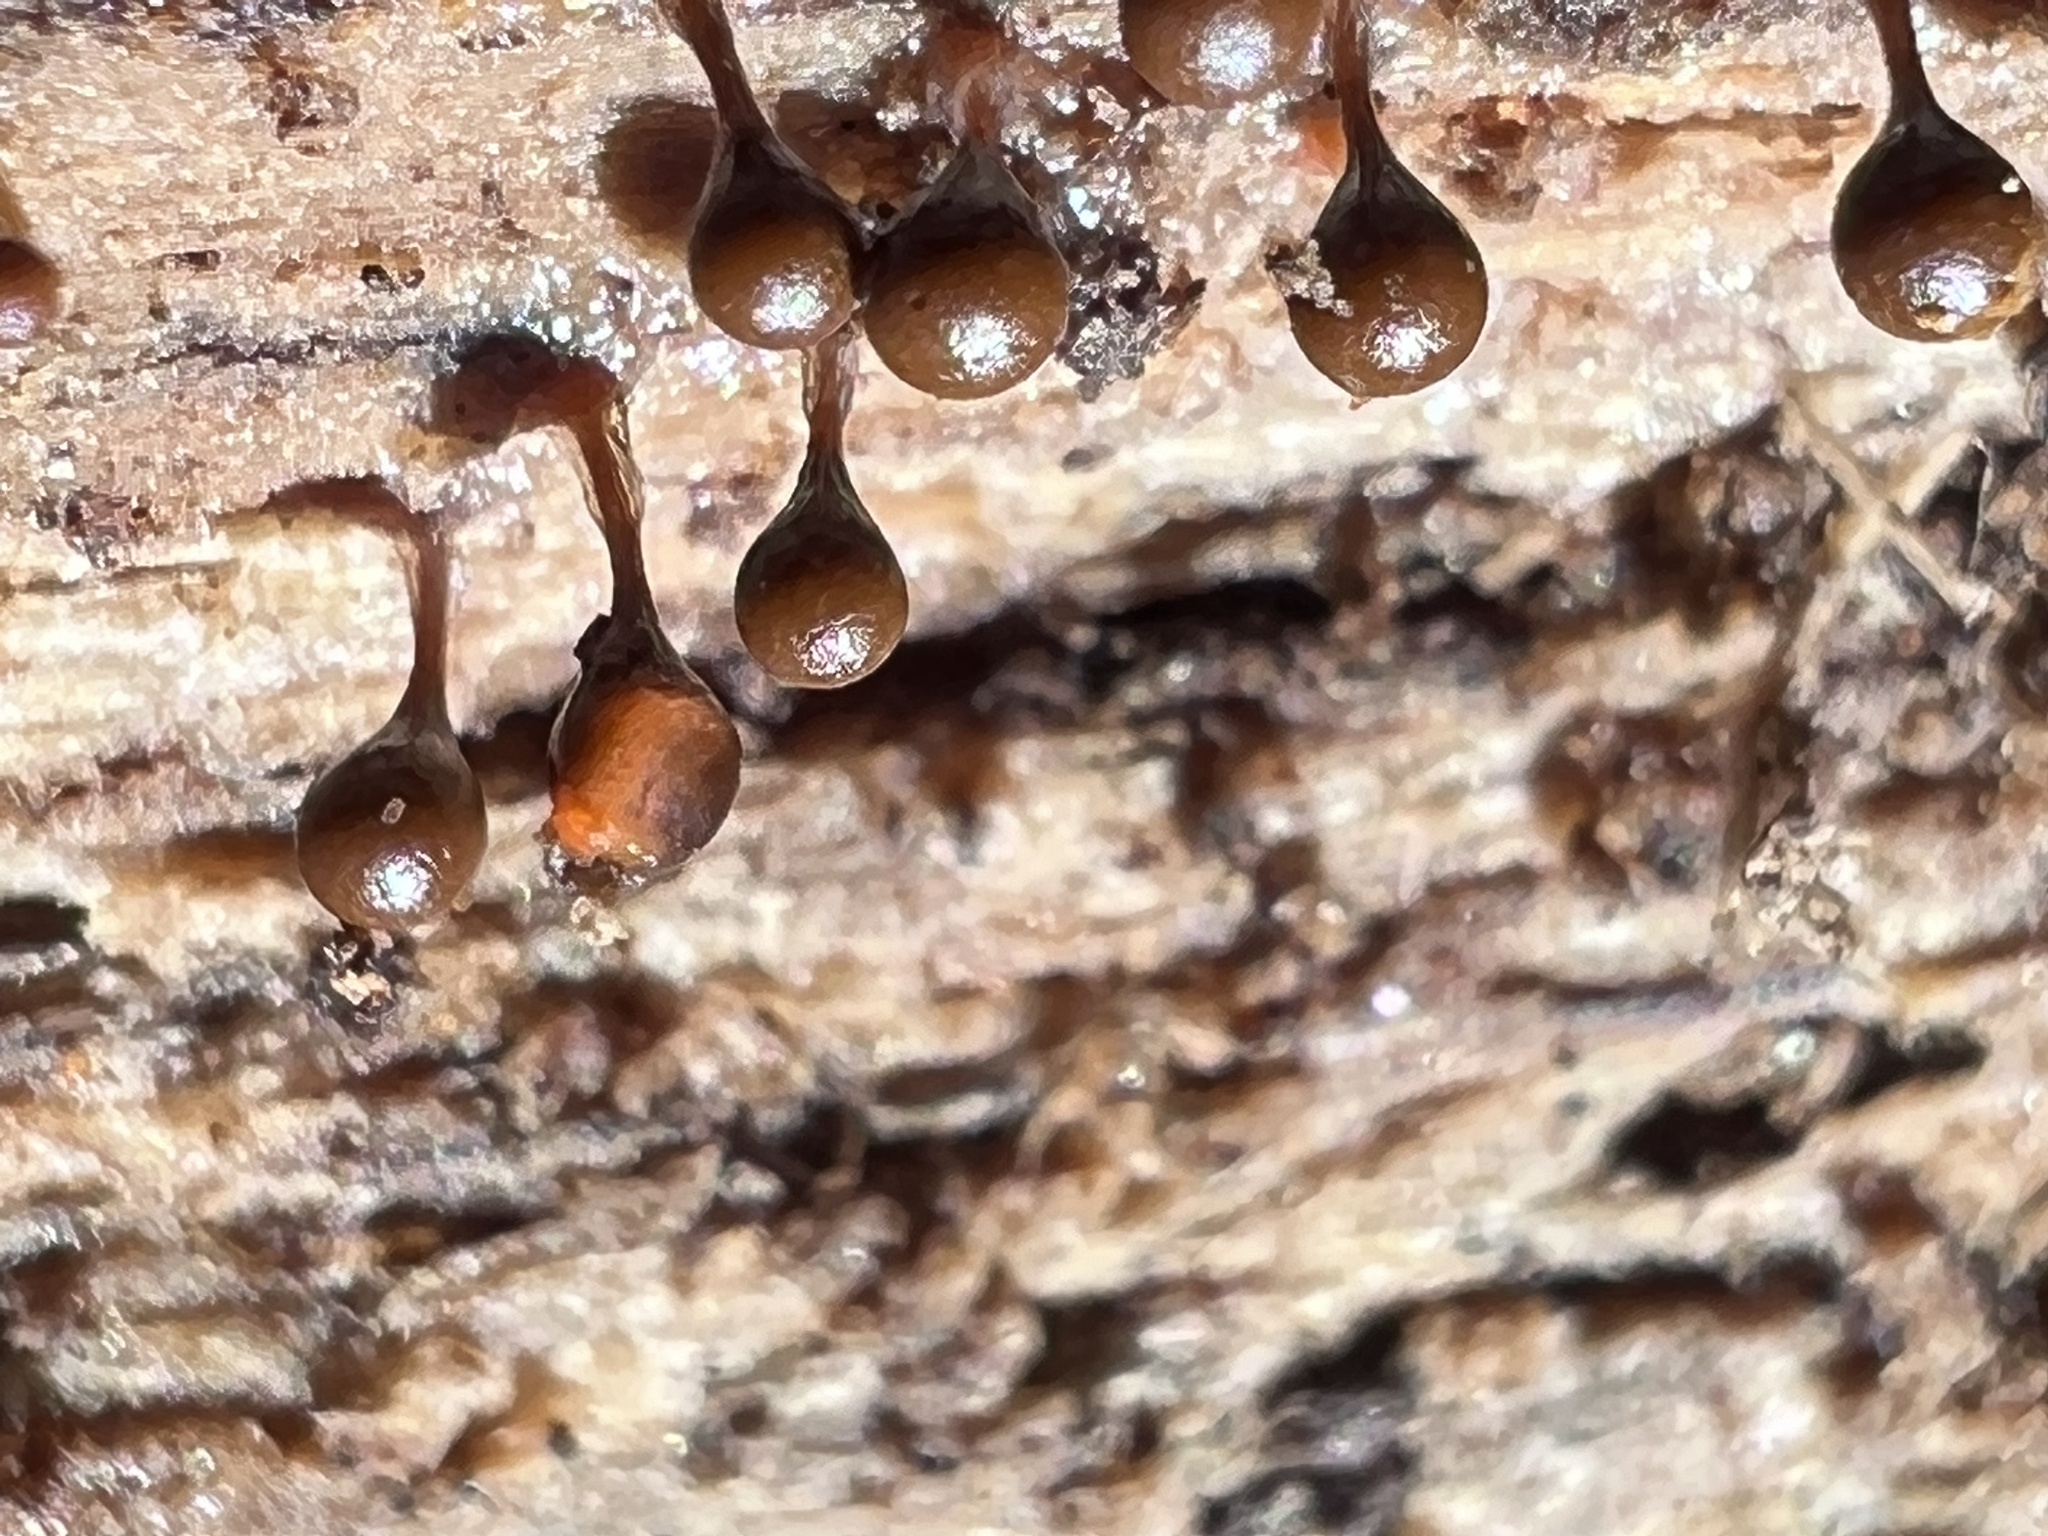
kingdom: Protozoa
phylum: Mycetozoa
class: Myxomycetes
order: Trichiales
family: Arcyriaceae
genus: Hemitrichia
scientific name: Hemitrichia calyculata
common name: Push pin slime mold
